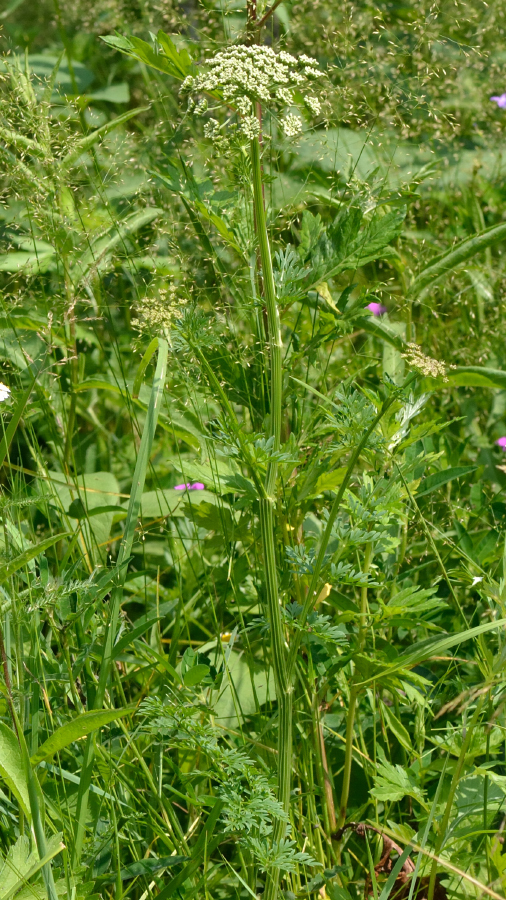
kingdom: Plantae
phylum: Tracheophyta
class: Magnoliopsida
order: Apiales
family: Apiaceae
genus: Selinum
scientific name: Selinum carvifolia
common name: Cambridge milk-parsley
